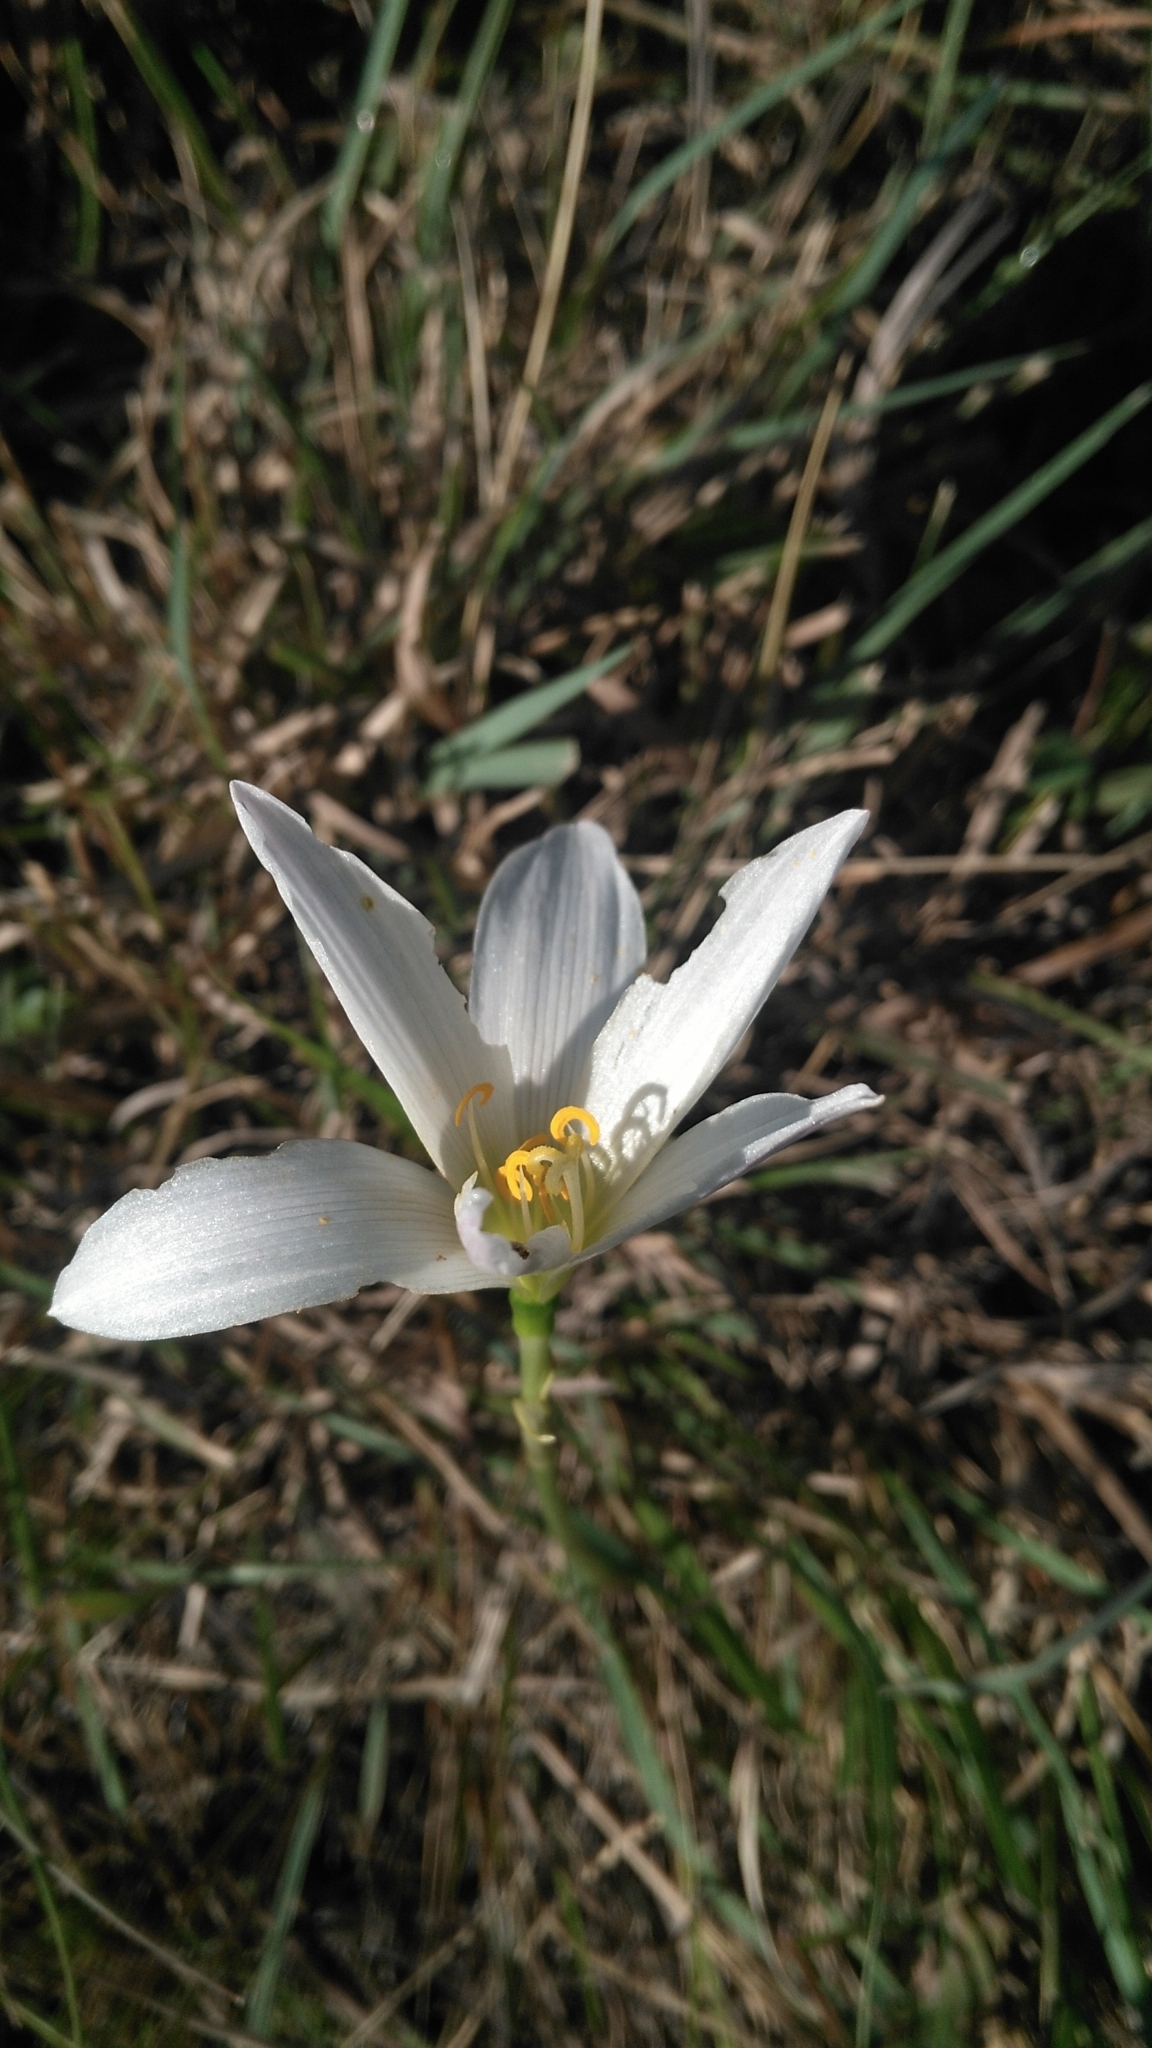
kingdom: Plantae
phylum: Tracheophyta
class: Liliopsida
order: Asparagales
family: Amaryllidaceae
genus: Zephyranthes
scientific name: Zephyranthes mesochloa
